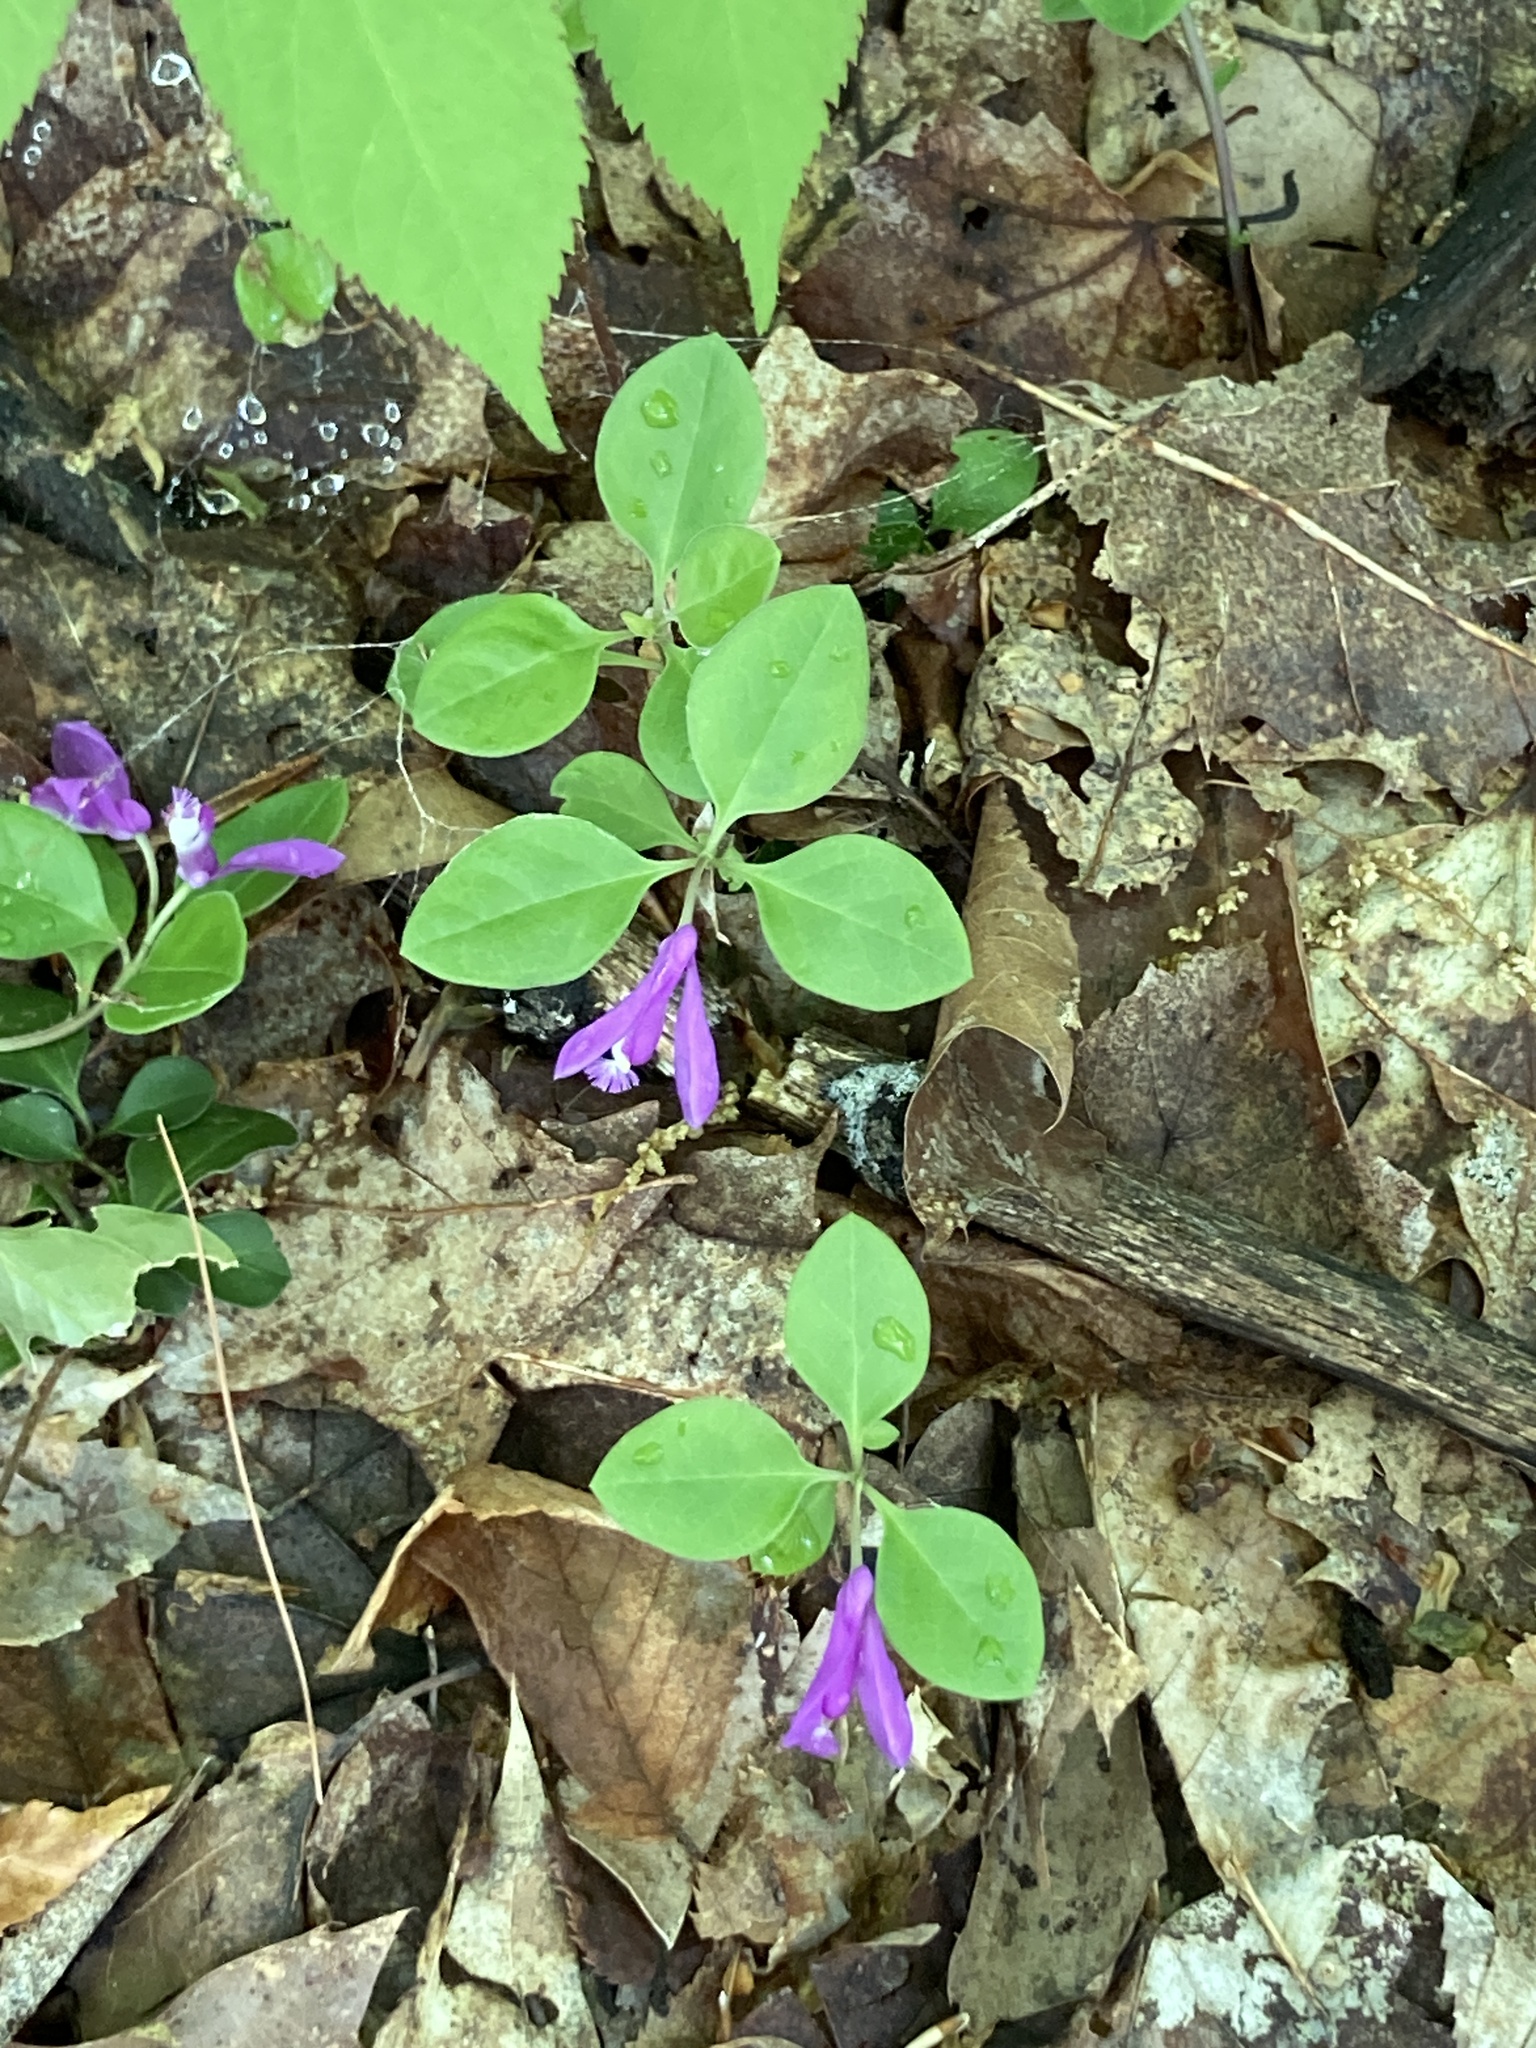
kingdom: Plantae
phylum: Tracheophyta
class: Magnoliopsida
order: Fabales
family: Polygalaceae
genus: Polygaloides
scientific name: Polygaloides paucifolia
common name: Bird-on-the-wing
